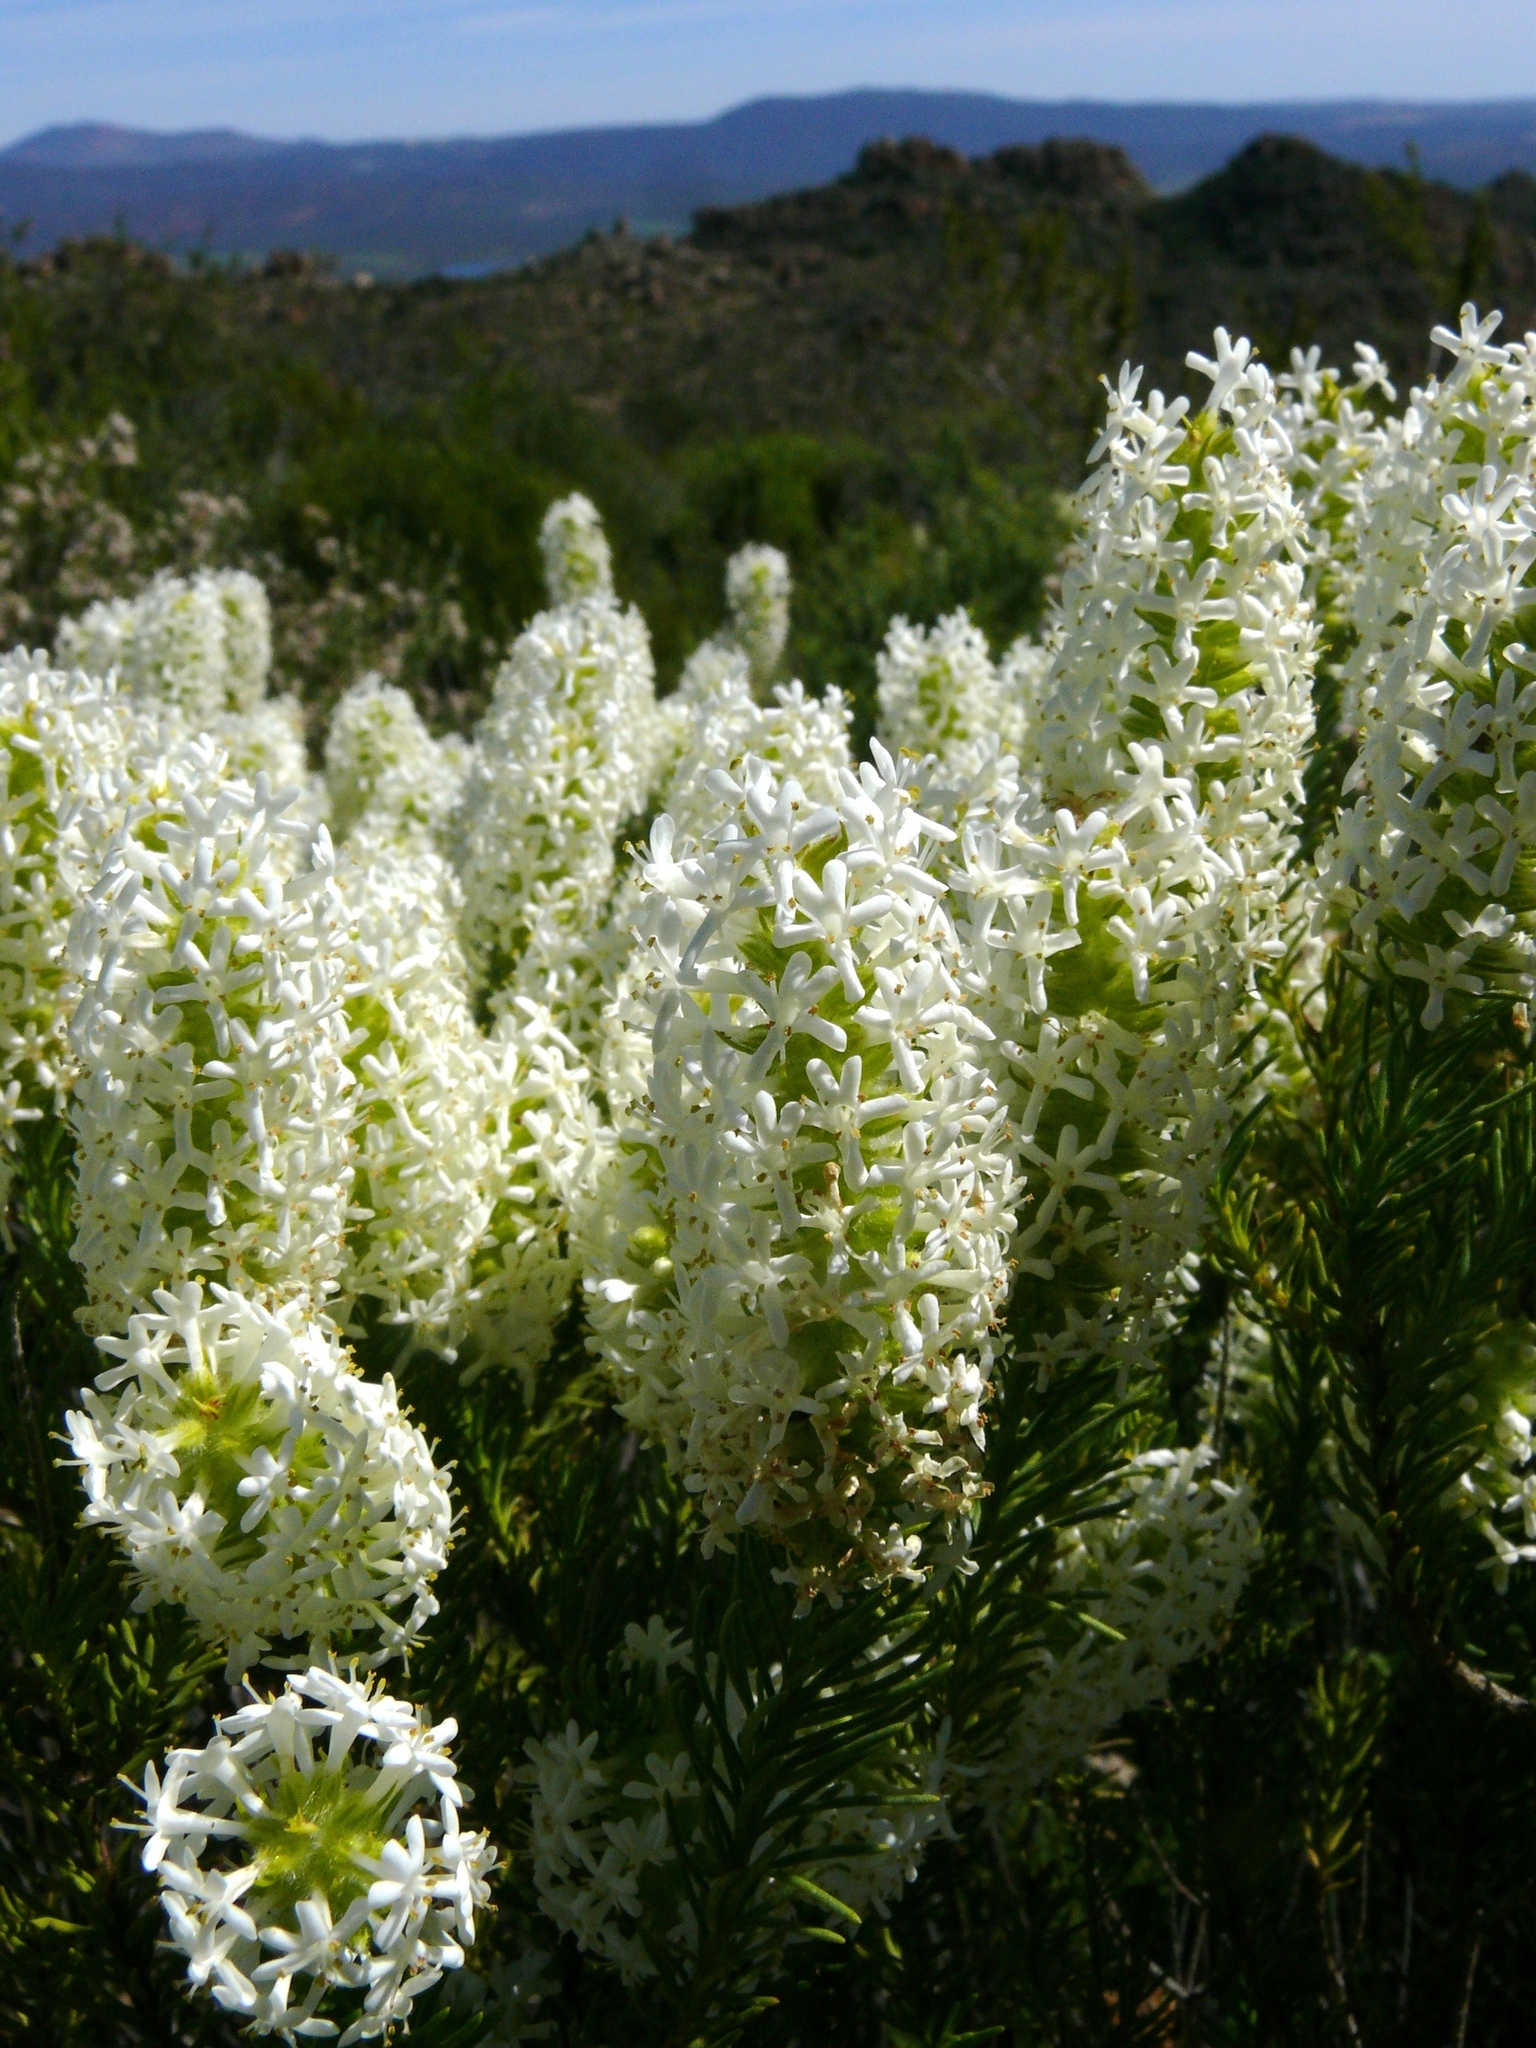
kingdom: Plantae
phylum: Tracheophyta
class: Magnoliopsida
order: Lamiales
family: Scrophulariaceae
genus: Selago
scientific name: Selago glutinosa
